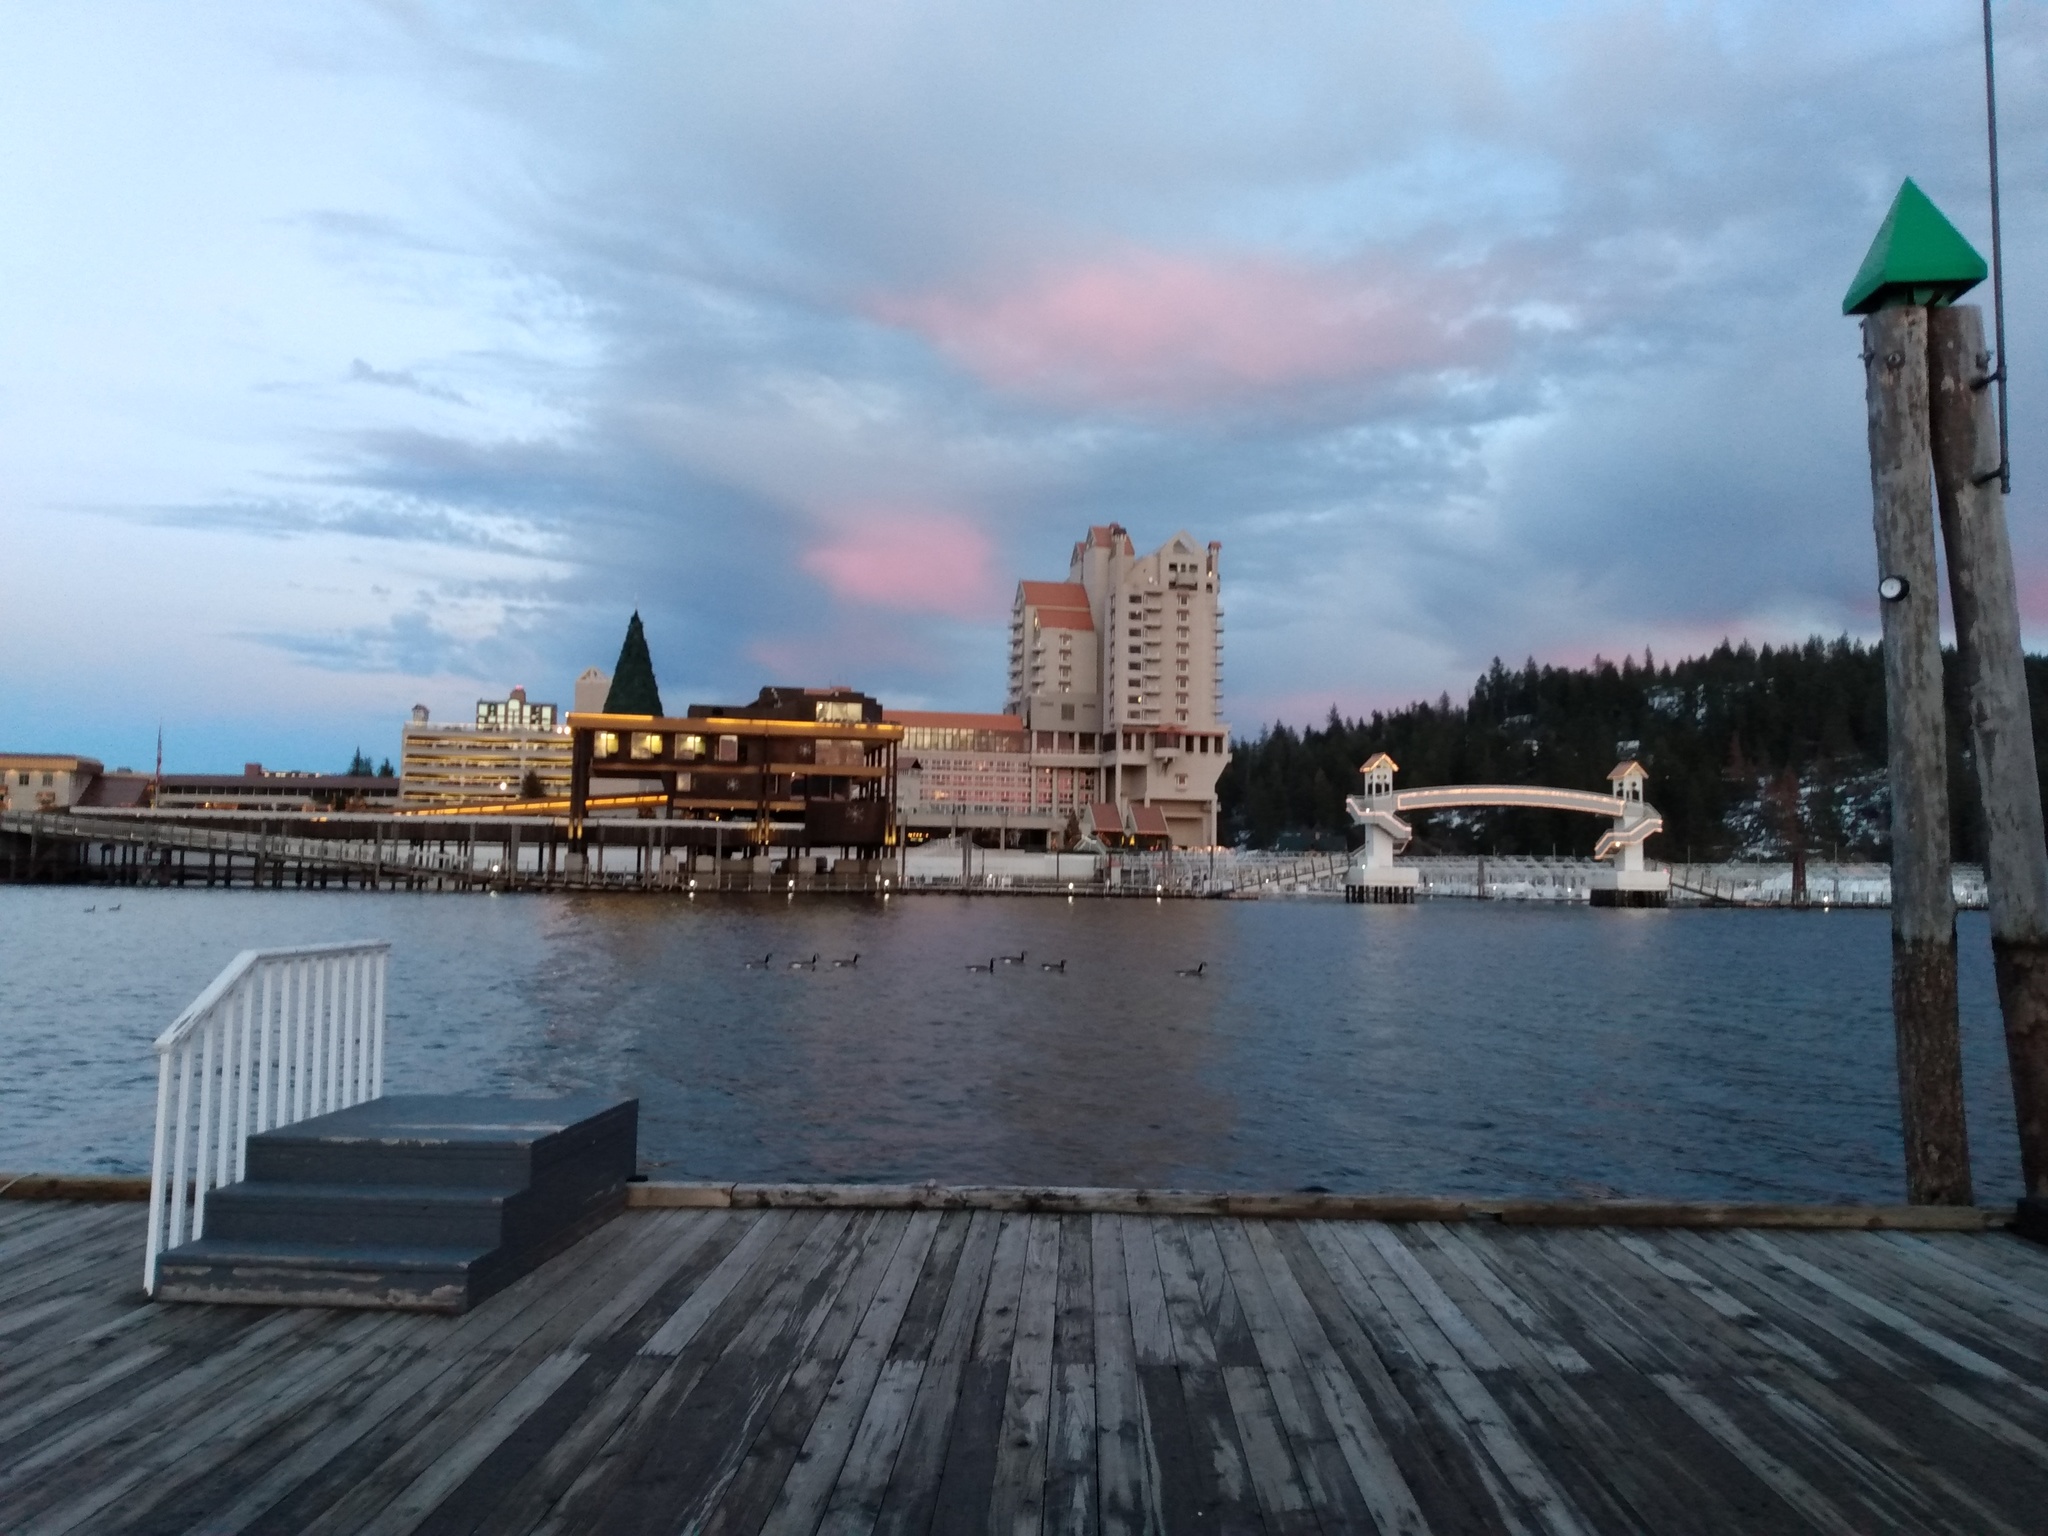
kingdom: Animalia
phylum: Chordata
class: Aves
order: Anseriformes
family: Anatidae
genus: Branta
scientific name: Branta canadensis
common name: Canada goose
